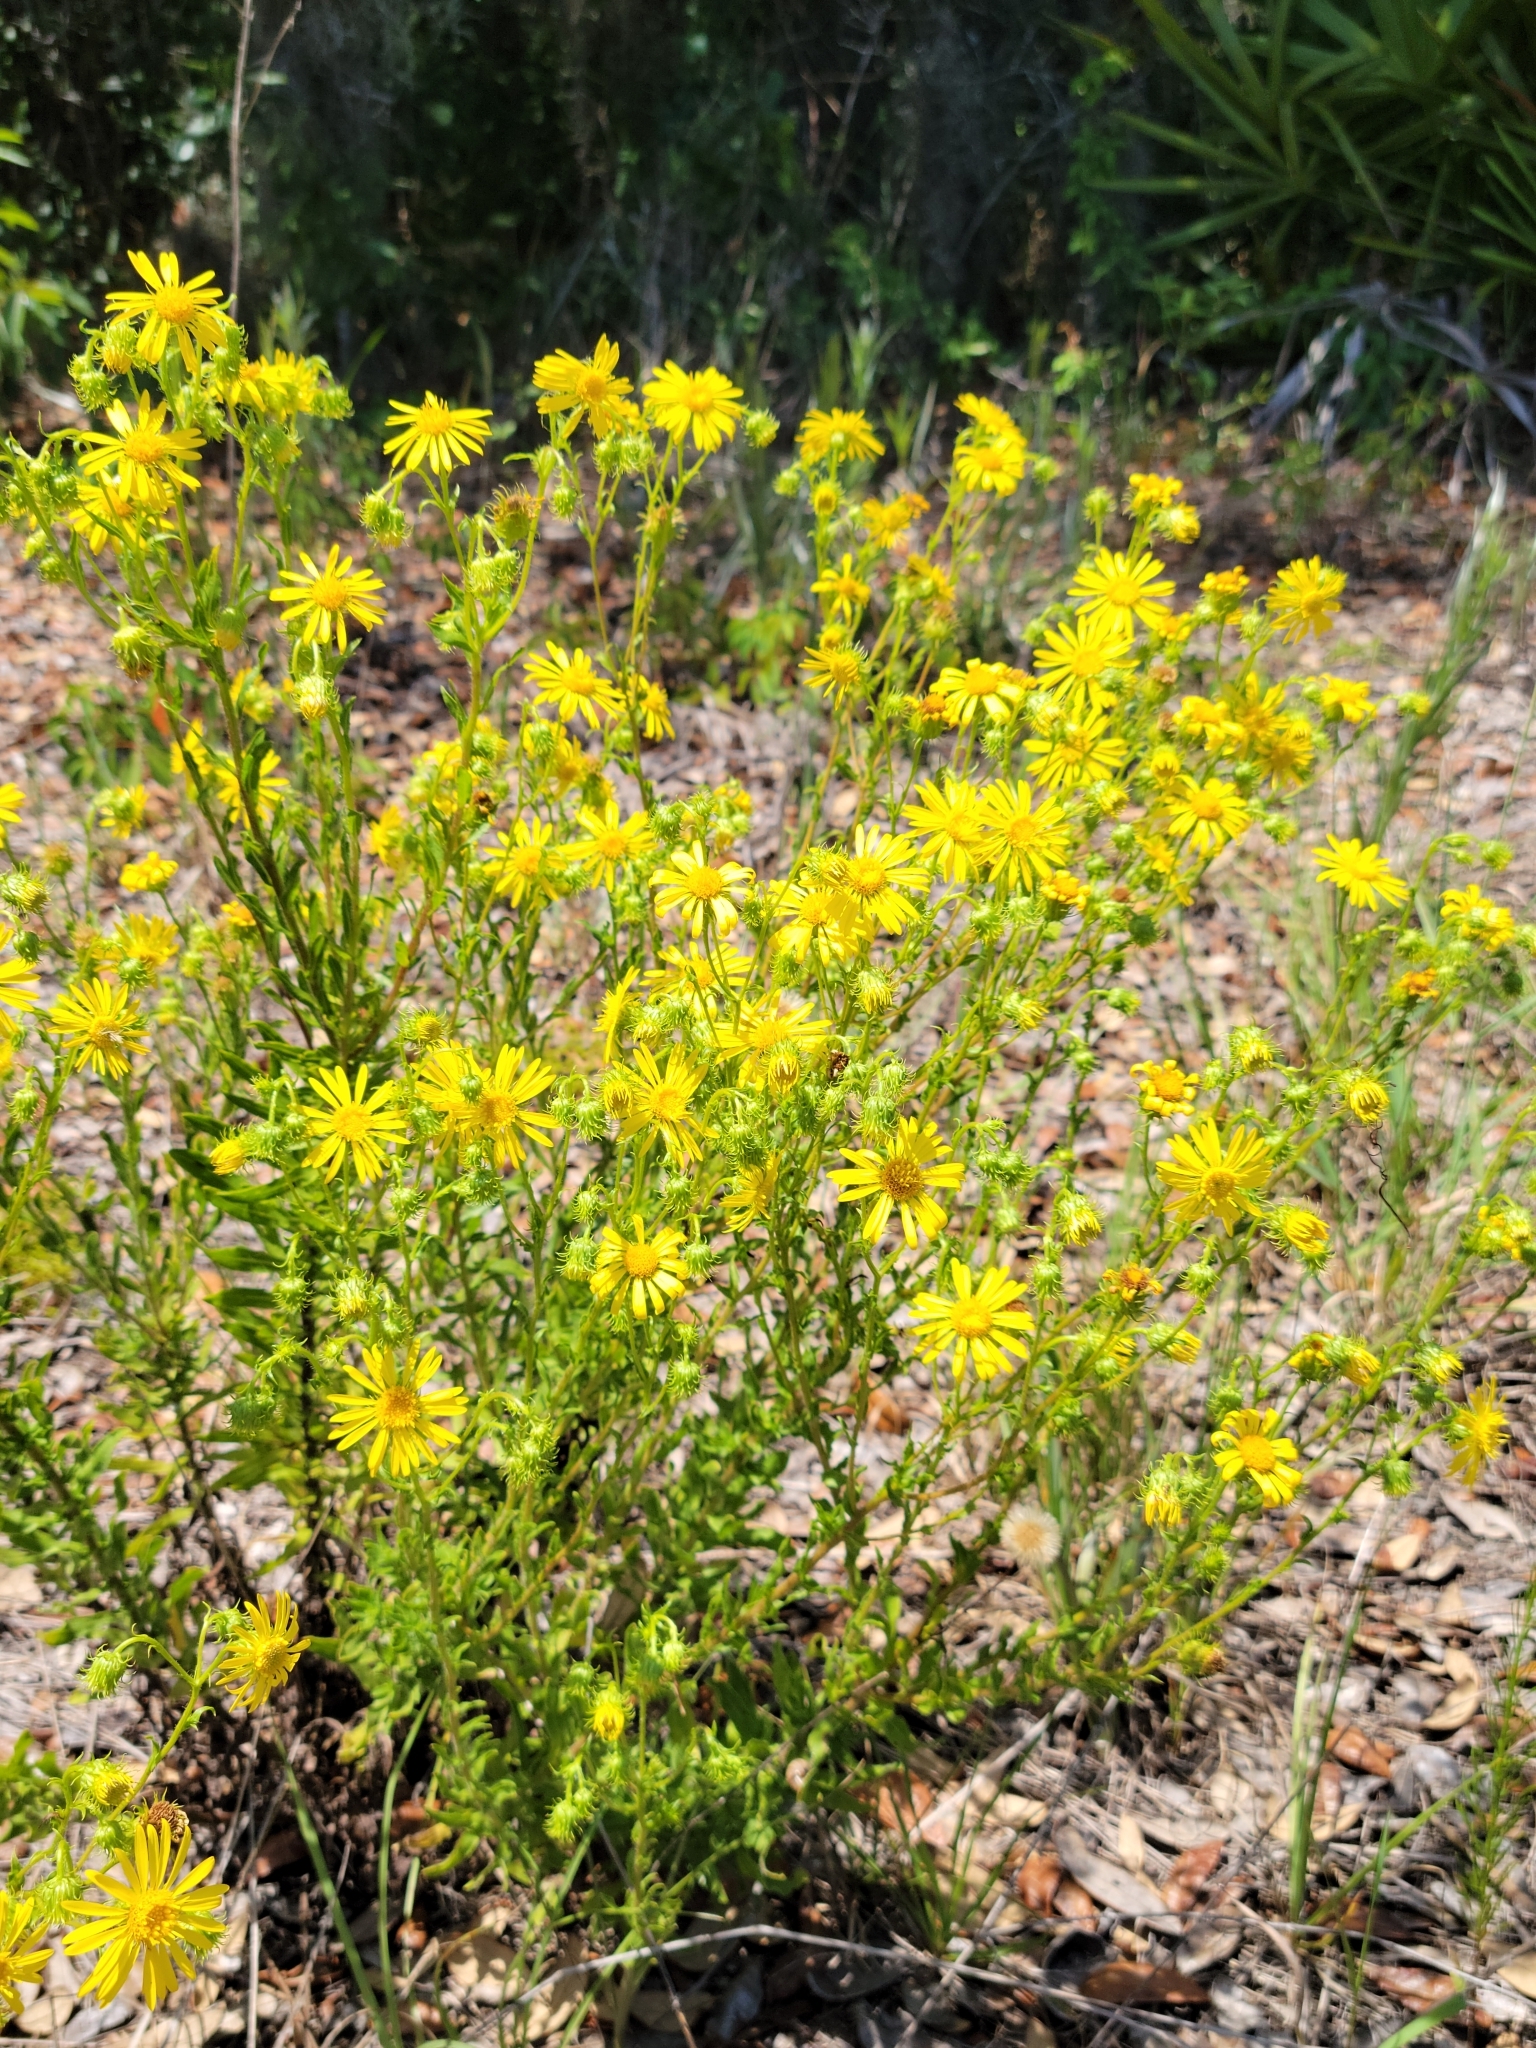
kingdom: Plantae
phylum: Tracheophyta
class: Magnoliopsida
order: Asterales
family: Asteraceae
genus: Chrysopsis
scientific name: Chrysopsis subulata
